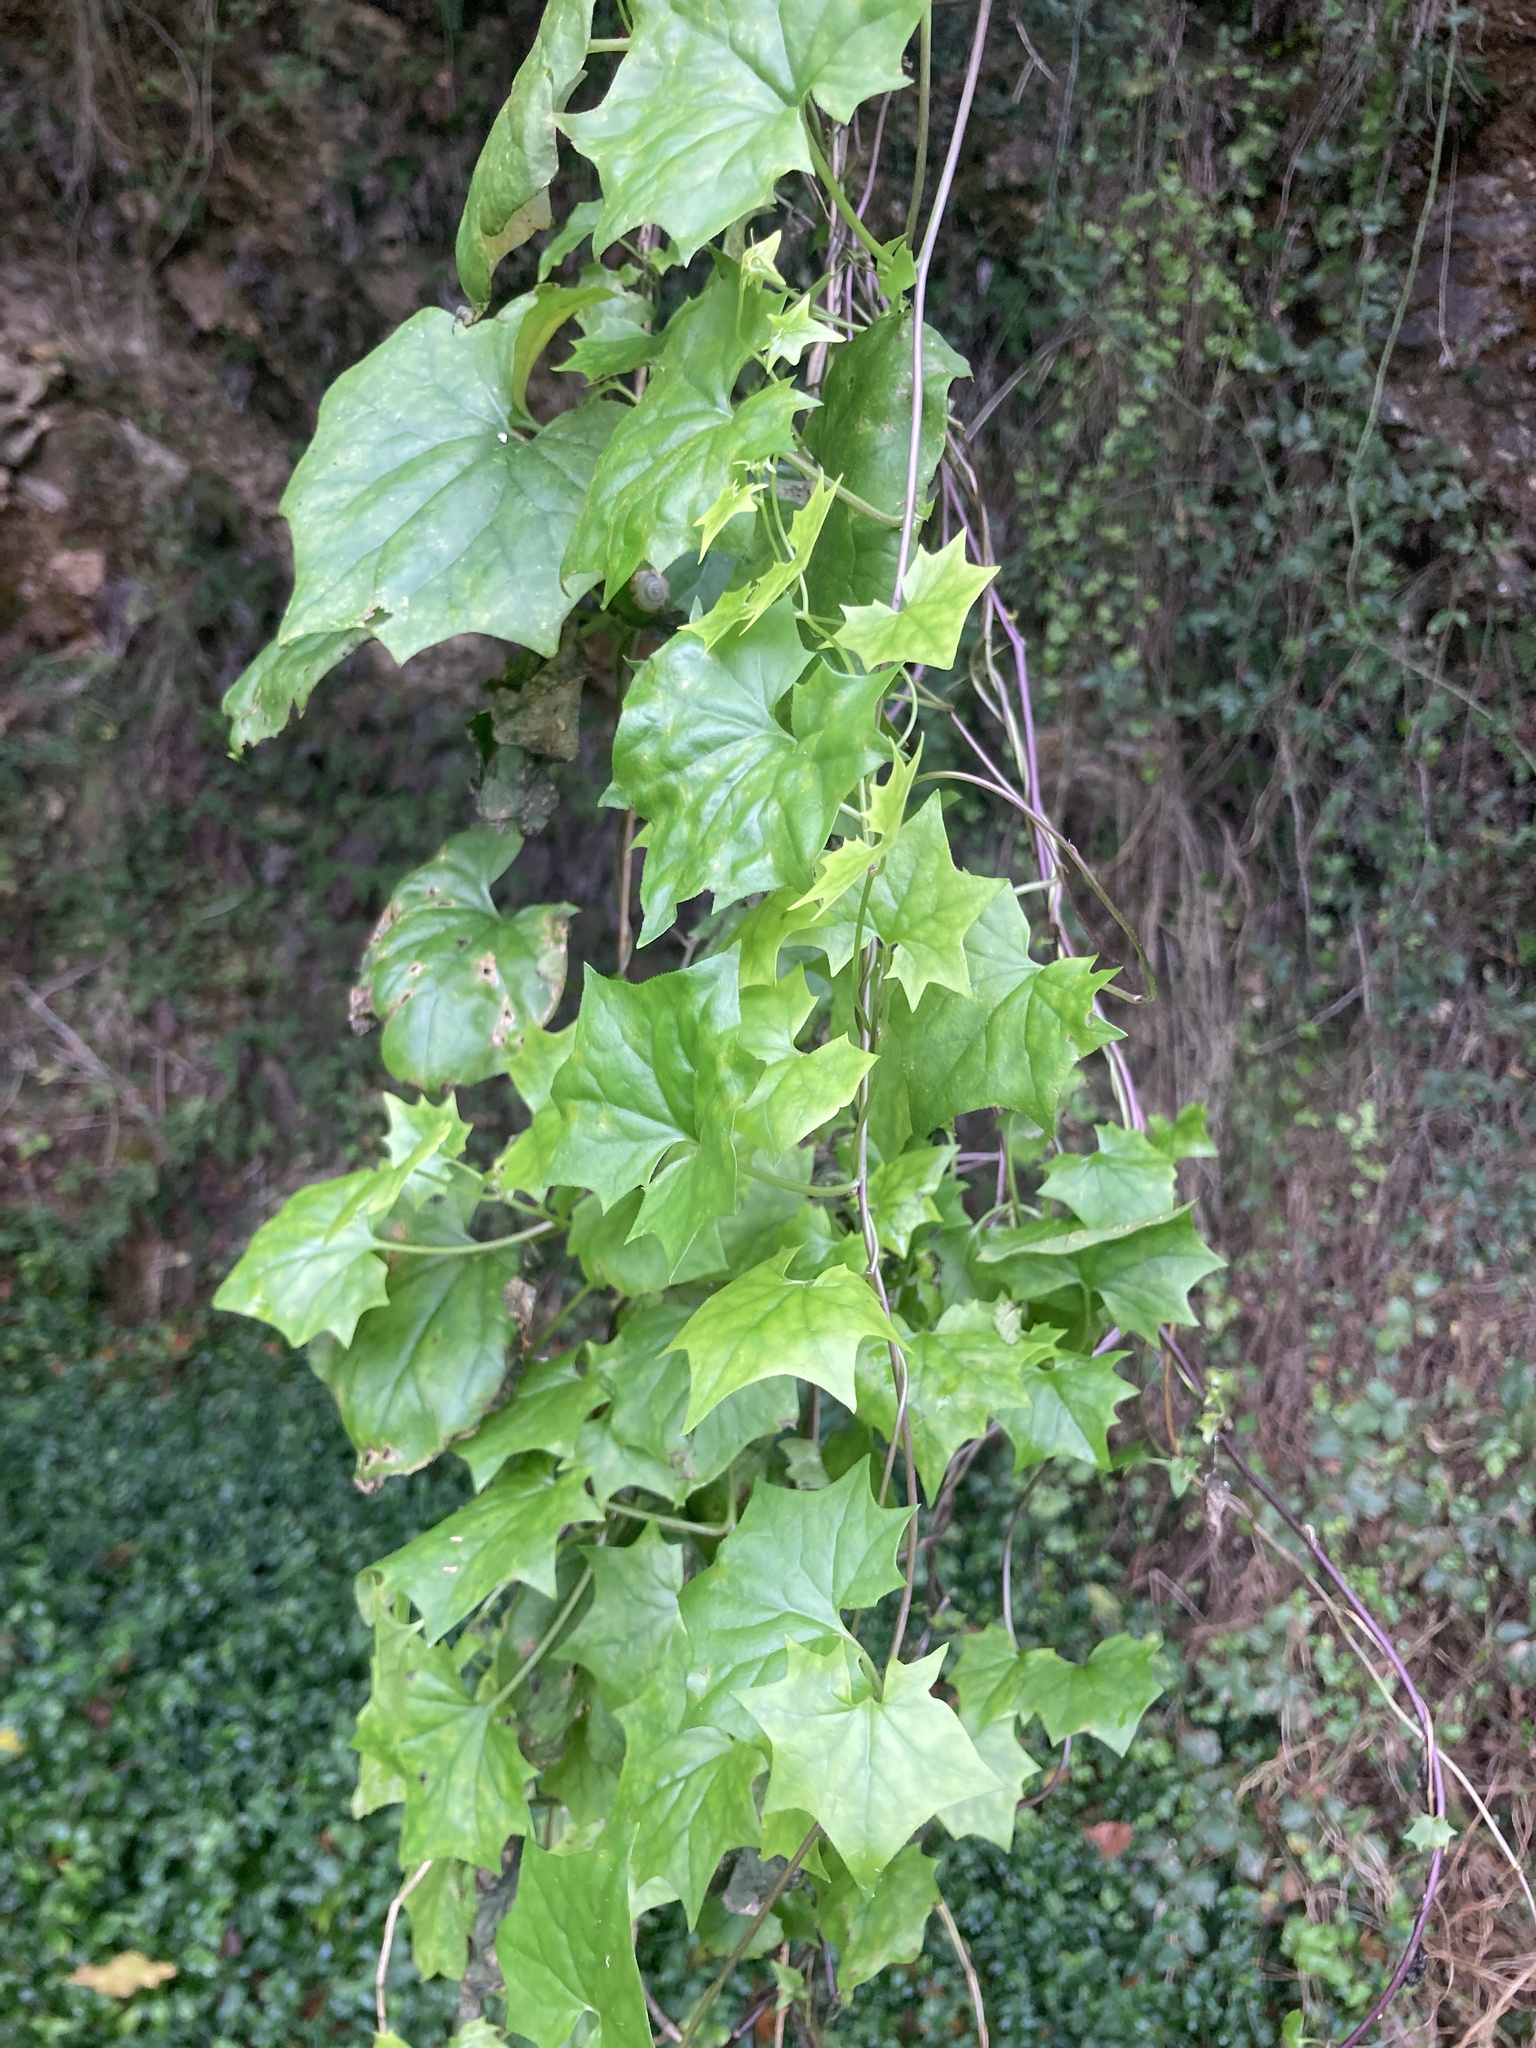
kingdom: Plantae
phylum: Tracheophyta
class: Magnoliopsida
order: Asterales
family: Asteraceae
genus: Delairea
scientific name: Delairea odorata
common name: Cape-ivy
